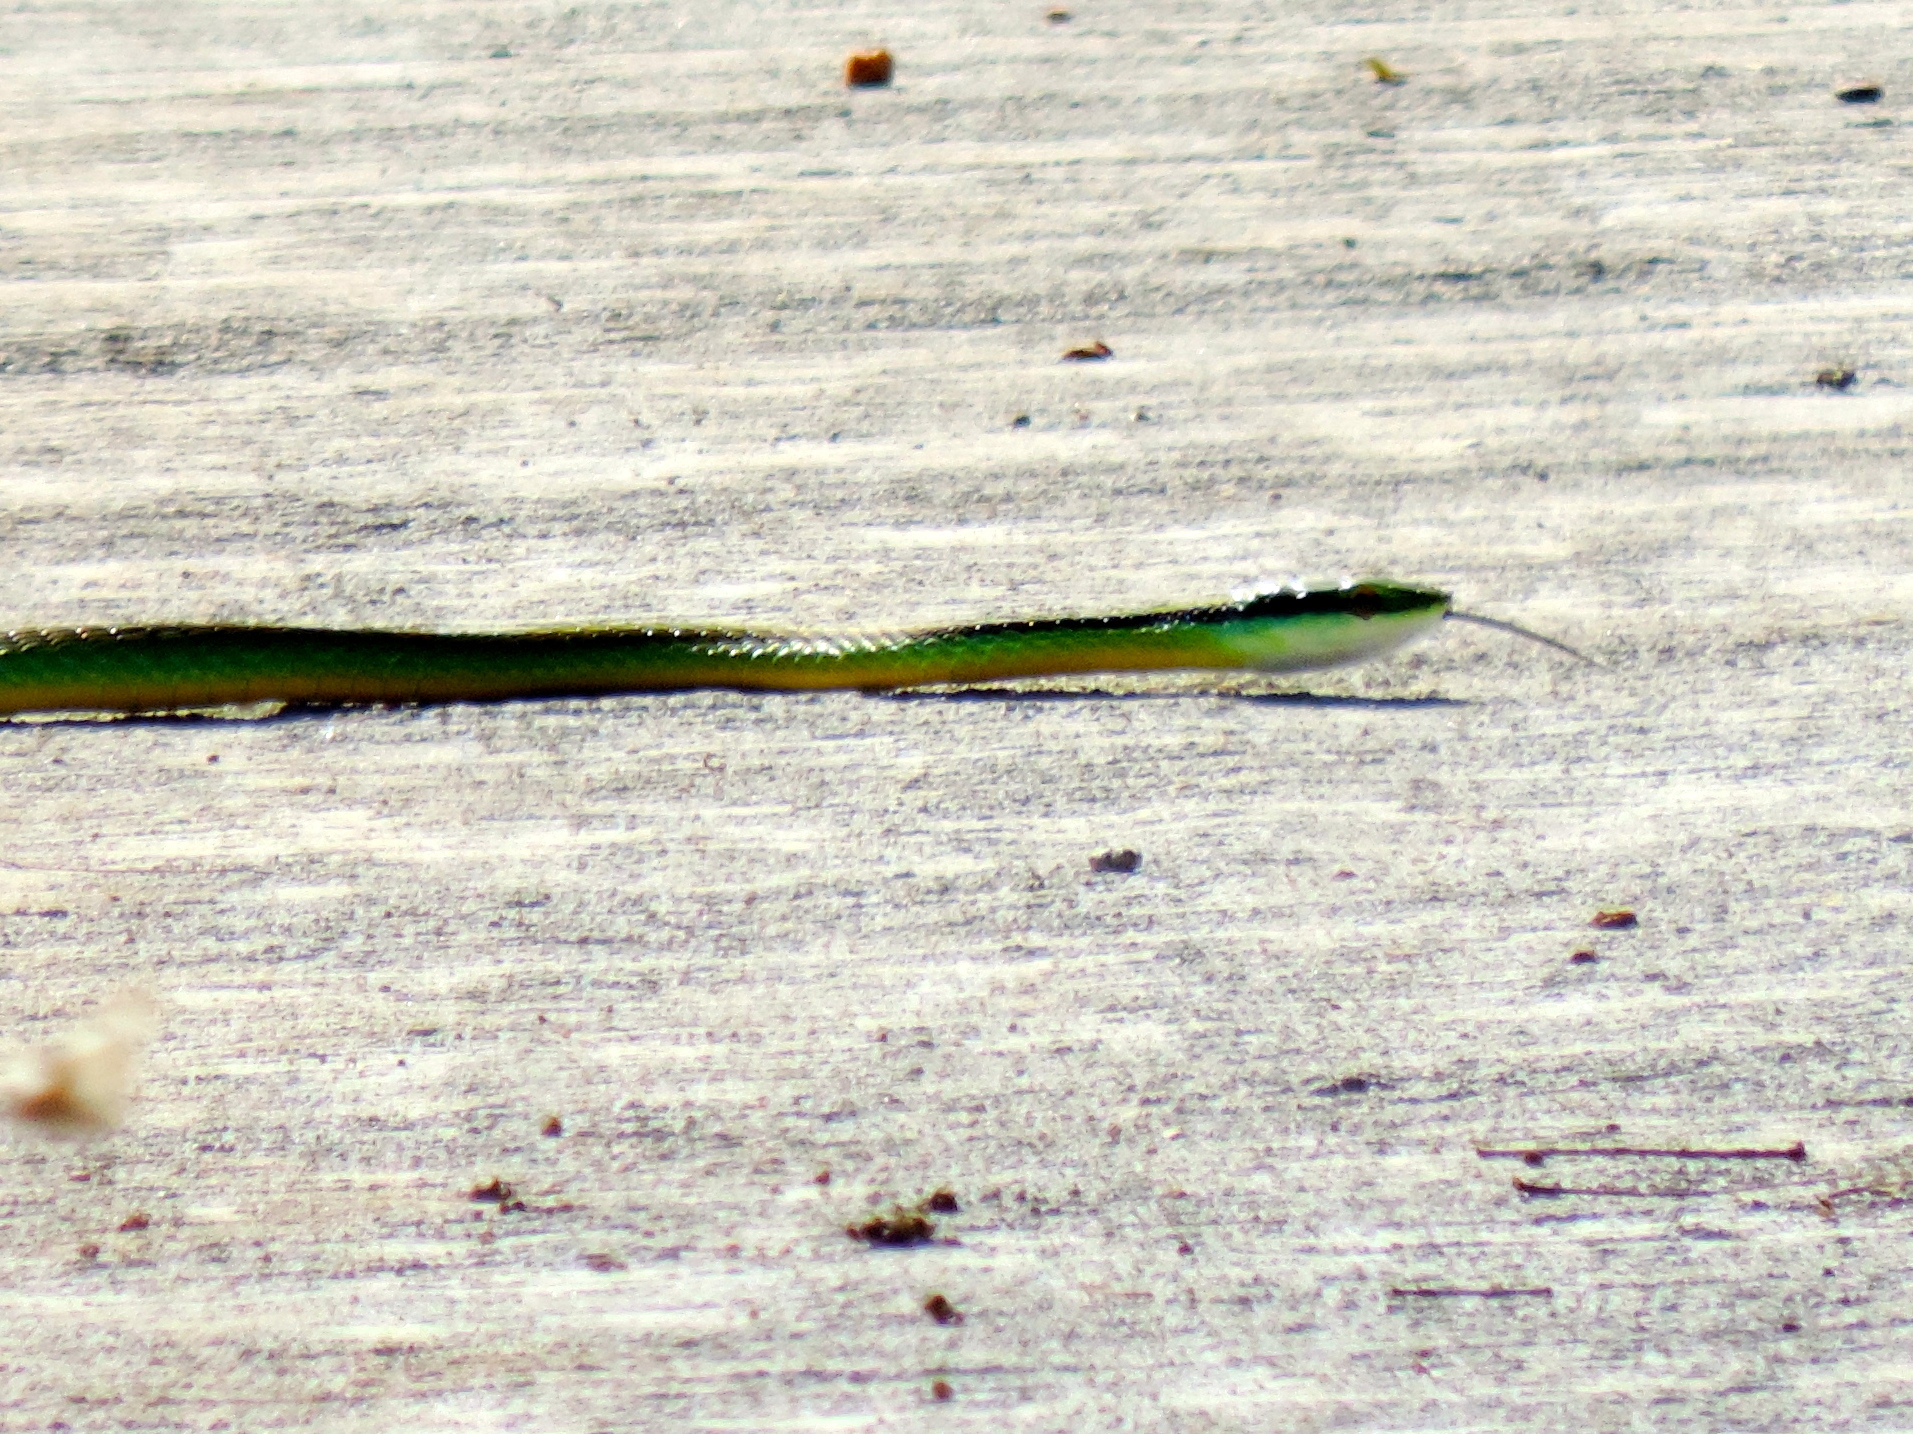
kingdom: Animalia
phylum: Chordata
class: Squamata
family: Colubridae
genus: Leptophis
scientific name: Leptophis diplotropis
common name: Pacific coast parrot snake
